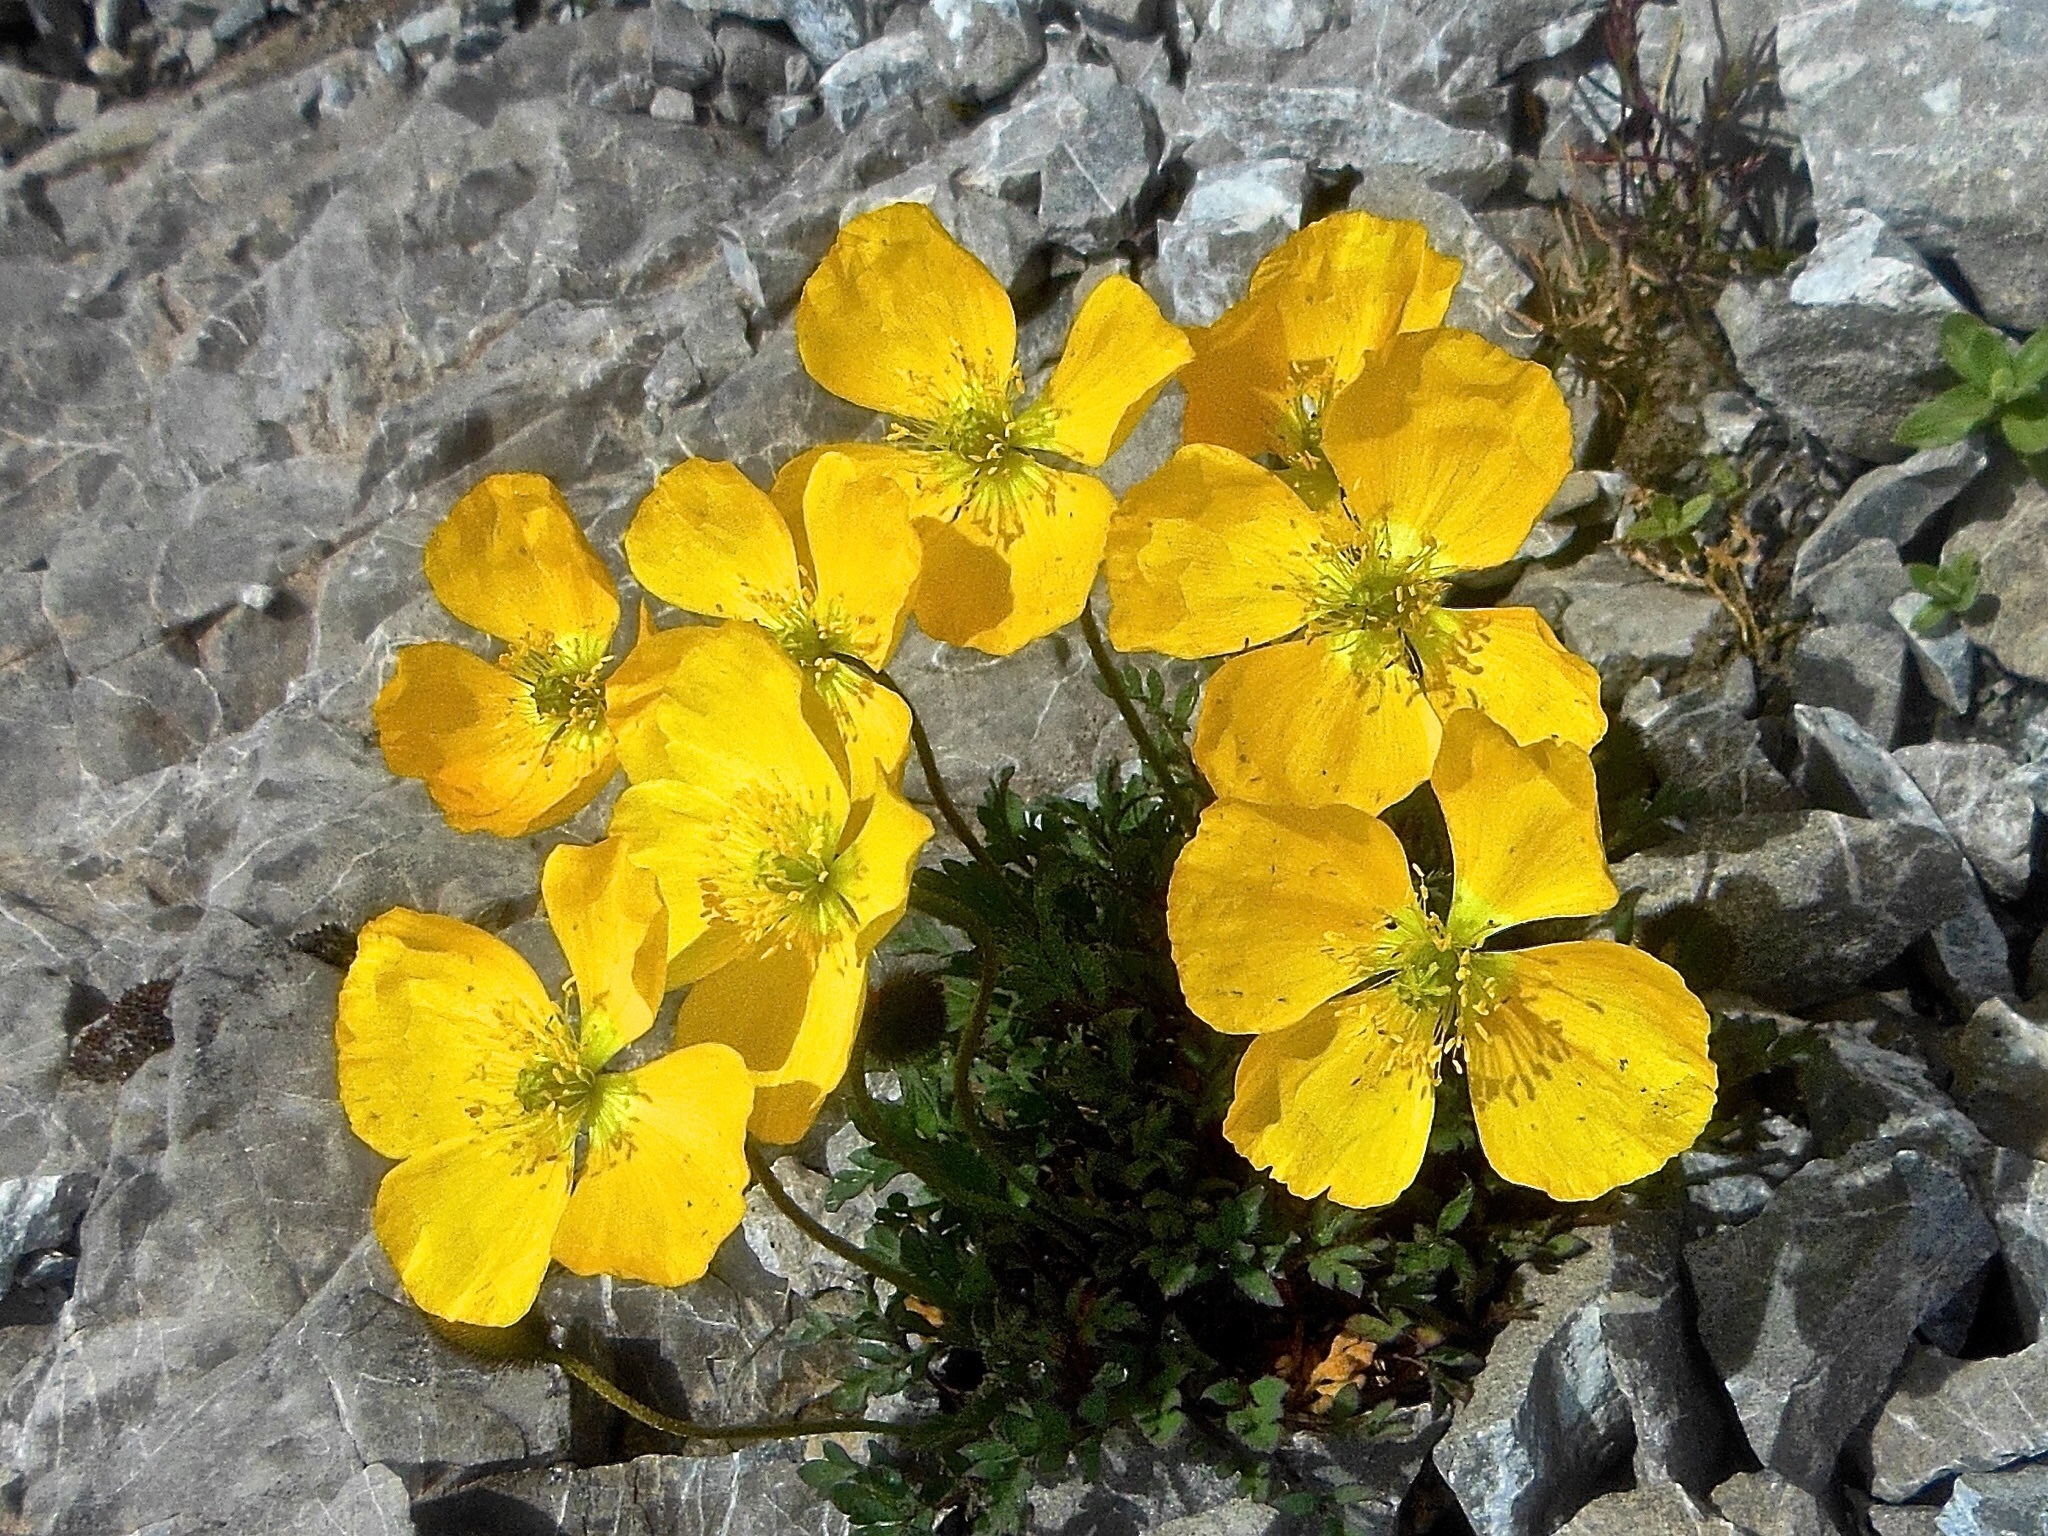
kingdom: Plantae
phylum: Tracheophyta
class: Magnoliopsida
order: Ranunculales
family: Papaveraceae
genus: Papaver
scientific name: Papaver alpinum
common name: Austrian poppy
